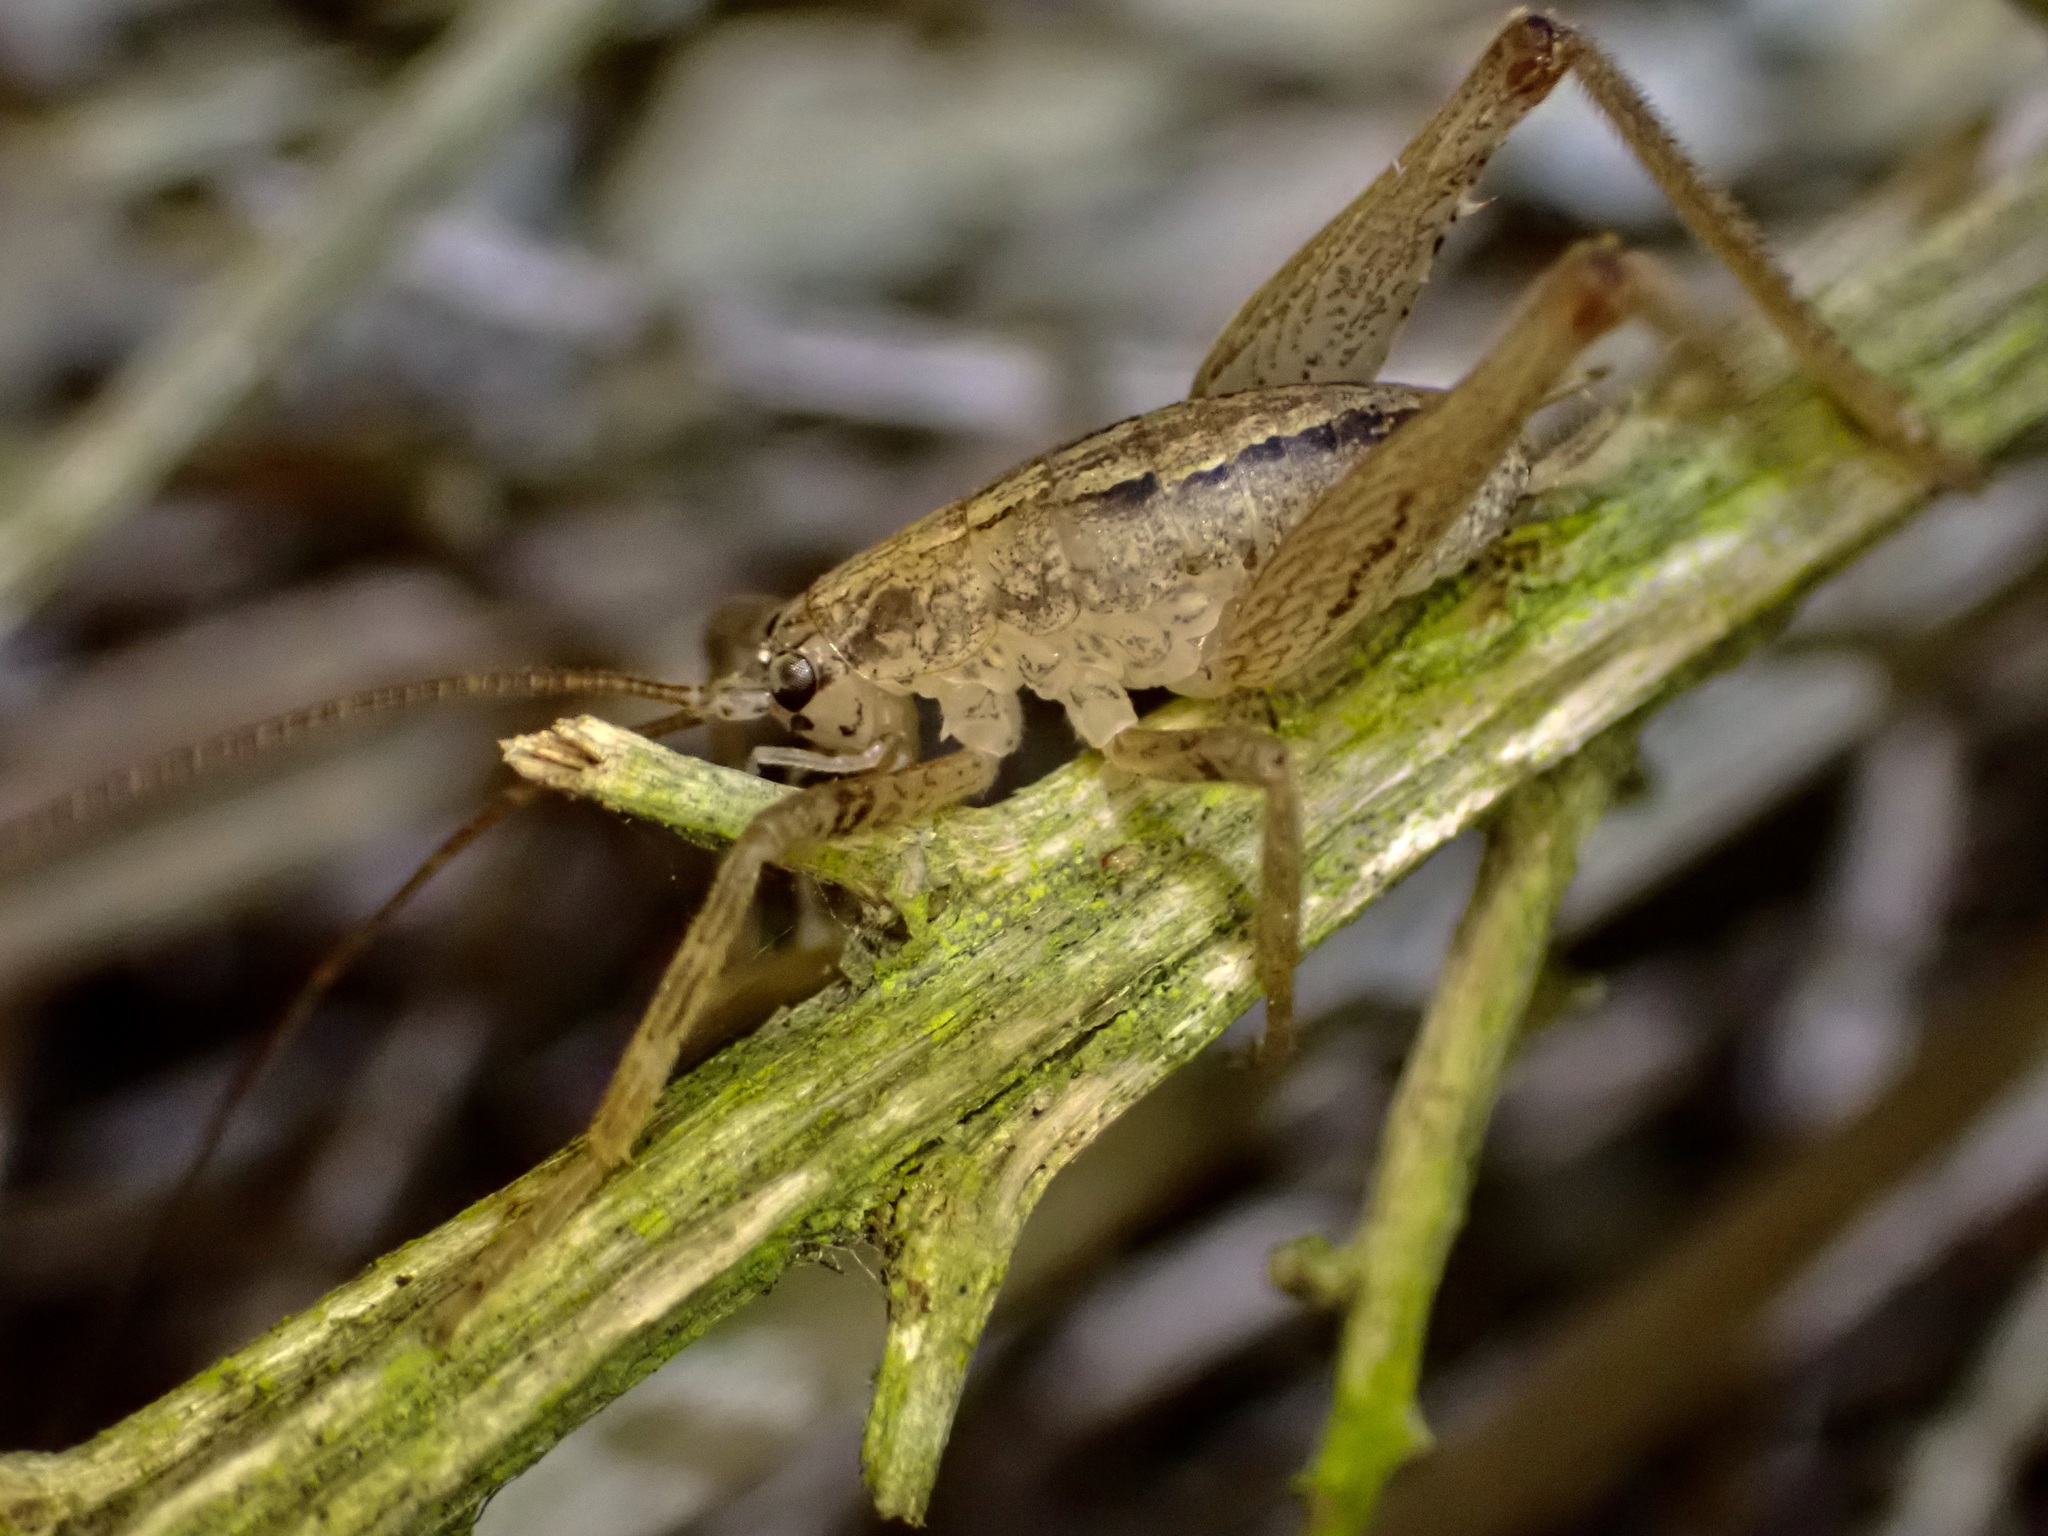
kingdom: Animalia
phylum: Arthropoda
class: Insecta
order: Orthoptera
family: Rhaphidophoridae
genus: Isoplectron
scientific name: Isoplectron armatum
